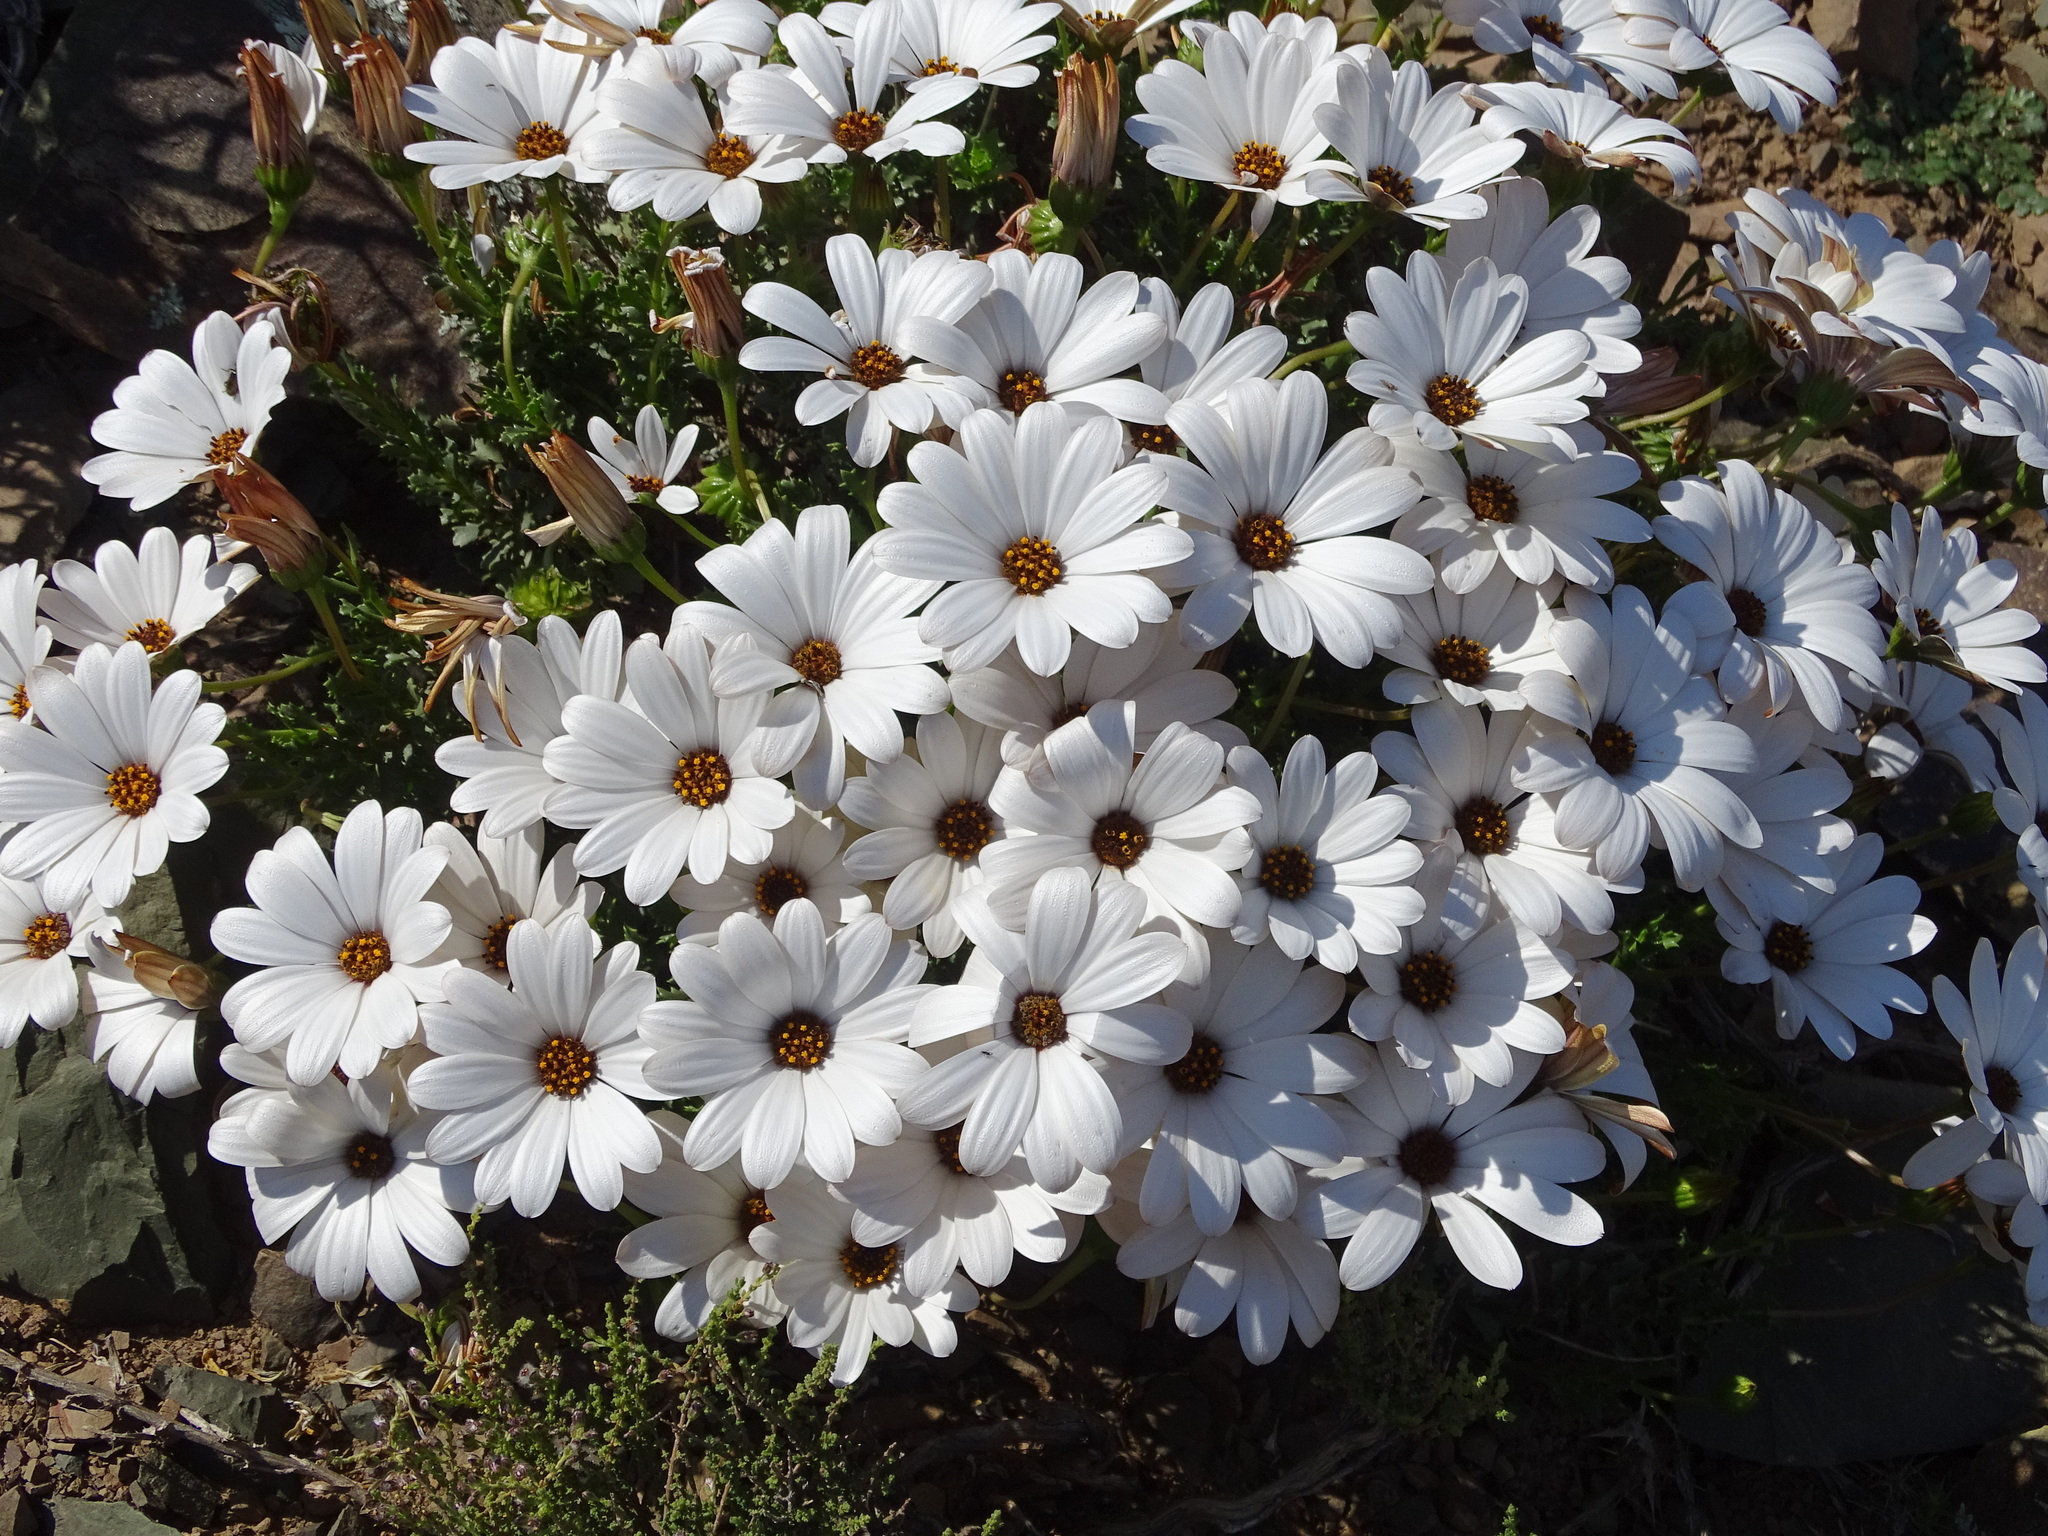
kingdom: Plantae
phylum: Tracheophyta
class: Magnoliopsida
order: Asterales
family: Asteraceae
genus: Dimorphotheca
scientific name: Dimorphotheca cuneata
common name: Daisy
